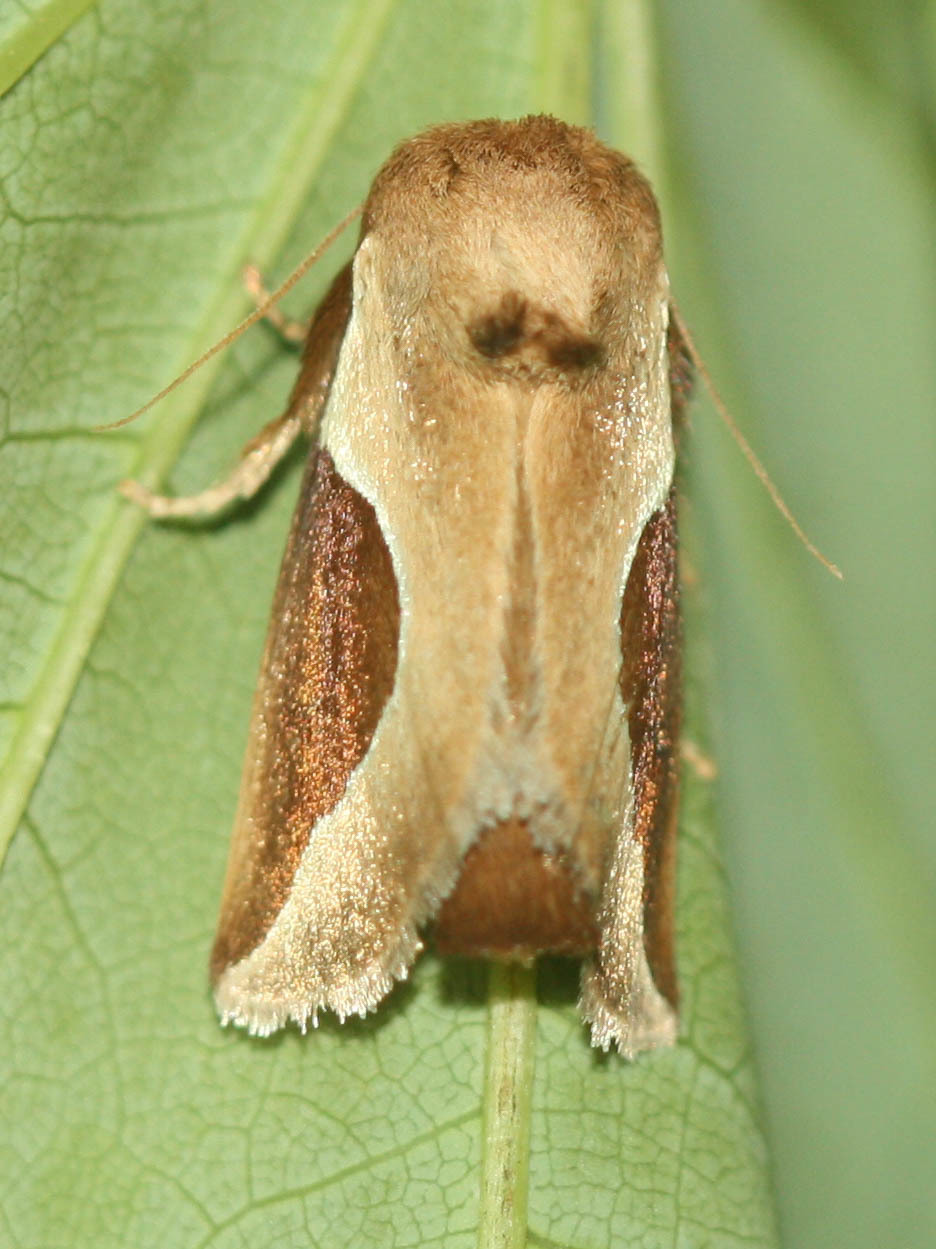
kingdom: Animalia
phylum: Arthropoda
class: Insecta
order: Lepidoptera
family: Limacodidae
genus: Prolimacodes
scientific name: Prolimacodes badia
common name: Skiff moth
